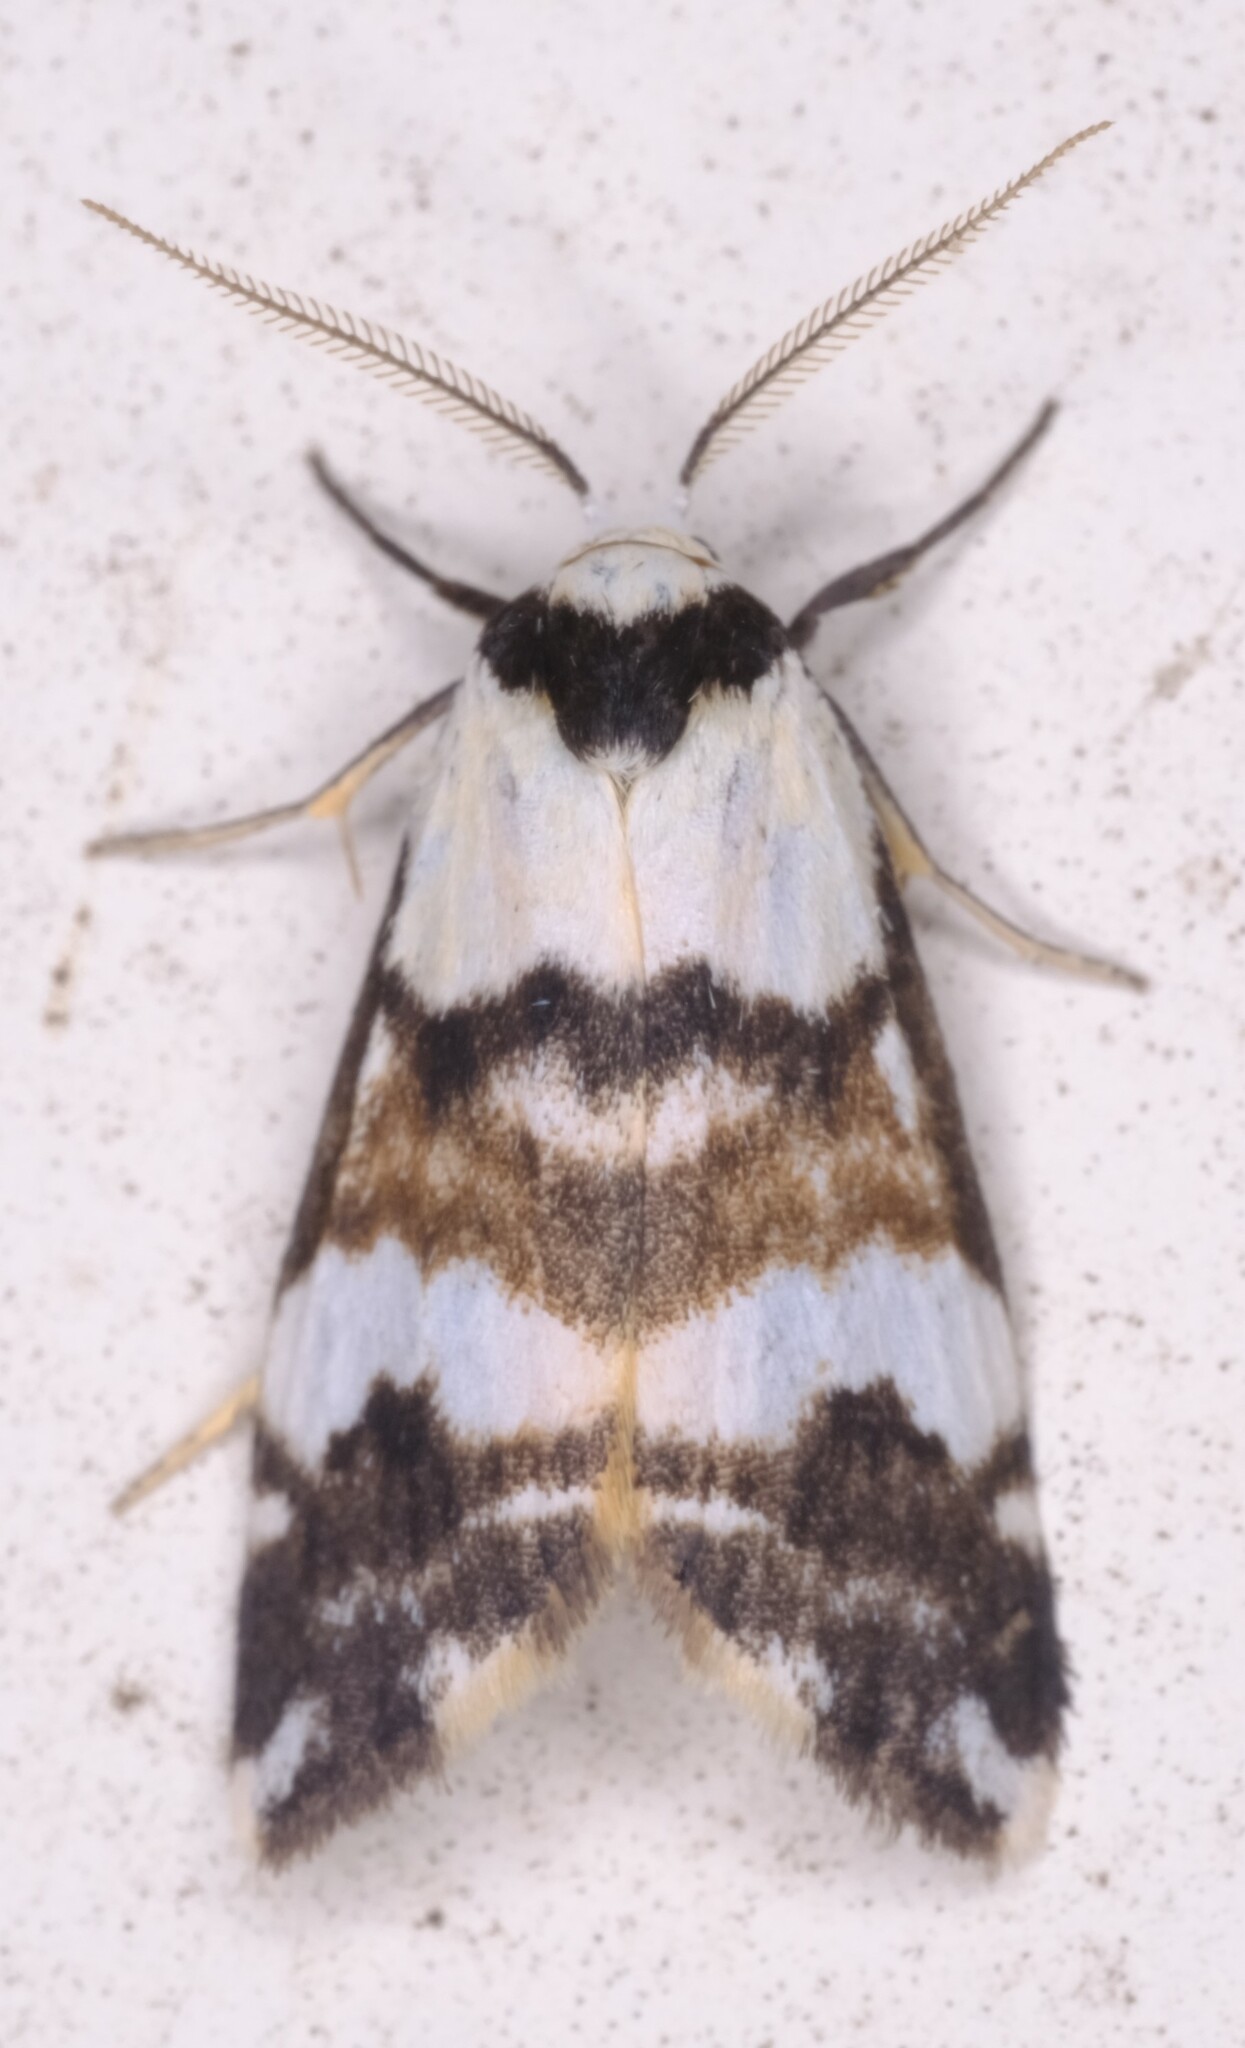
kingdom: Animalia
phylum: Arthropoda
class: Insecta
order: Lepidoptera
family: Erebidae
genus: Thallarcha
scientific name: Thallarcha albicollis
